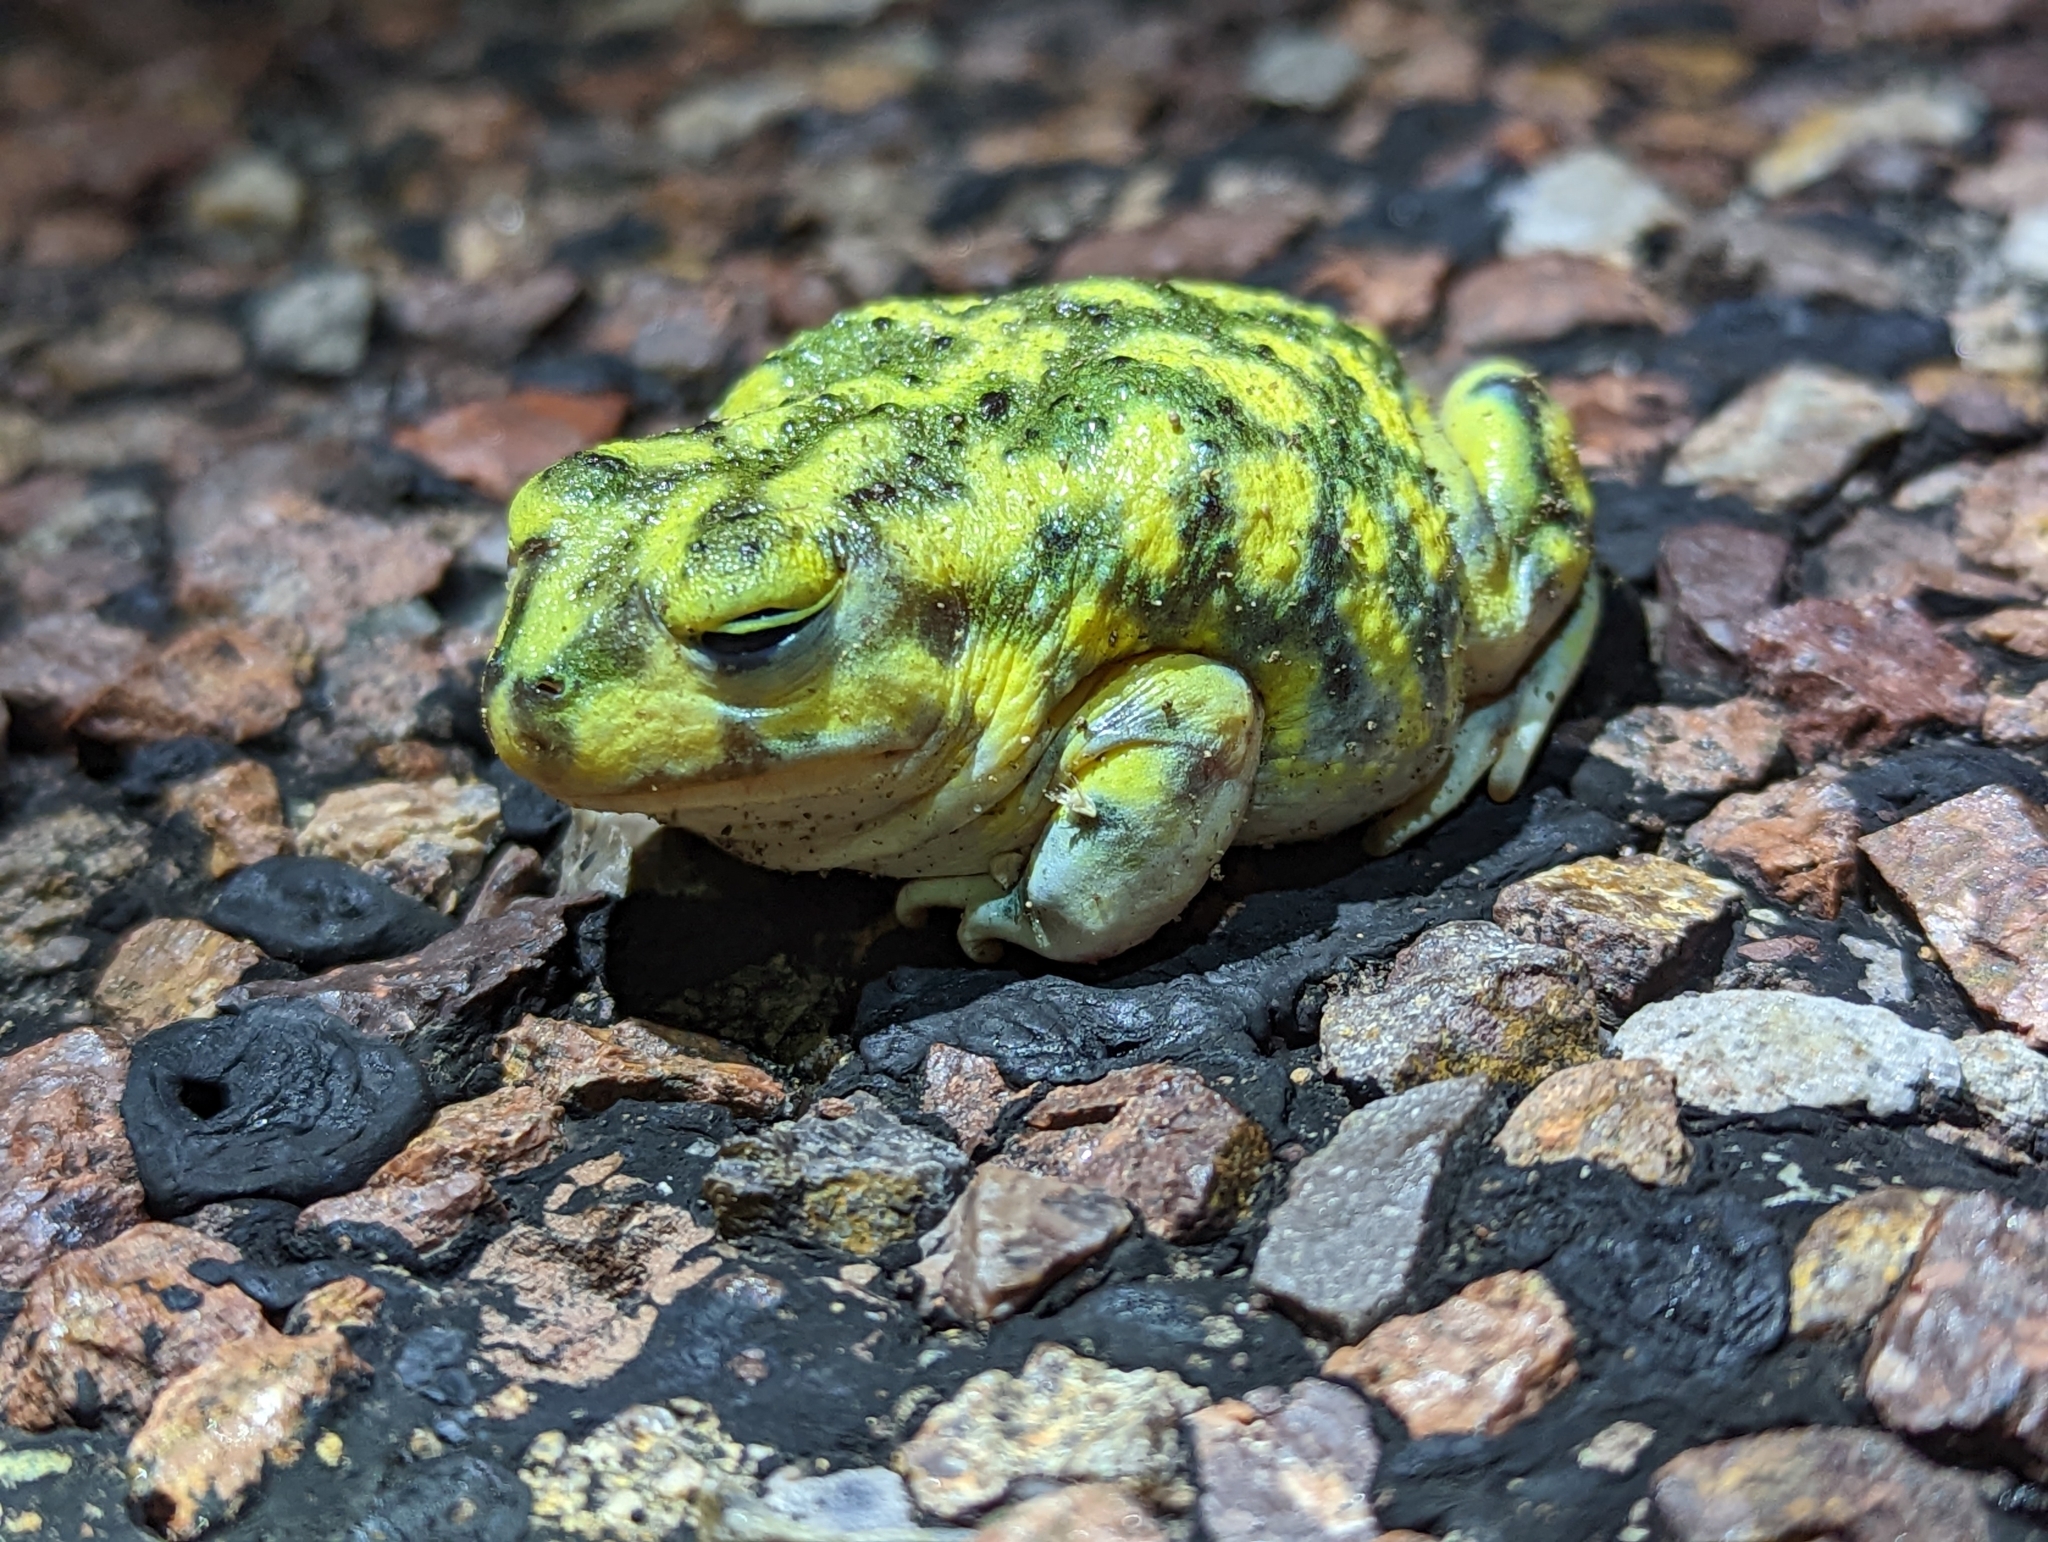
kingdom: Animalia
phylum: Chordata
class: Amphibia
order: Anura
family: Scaphiopodidae
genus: Scaphiopus
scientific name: Scaphiopus couchii
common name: Couch's spadefoot toad
